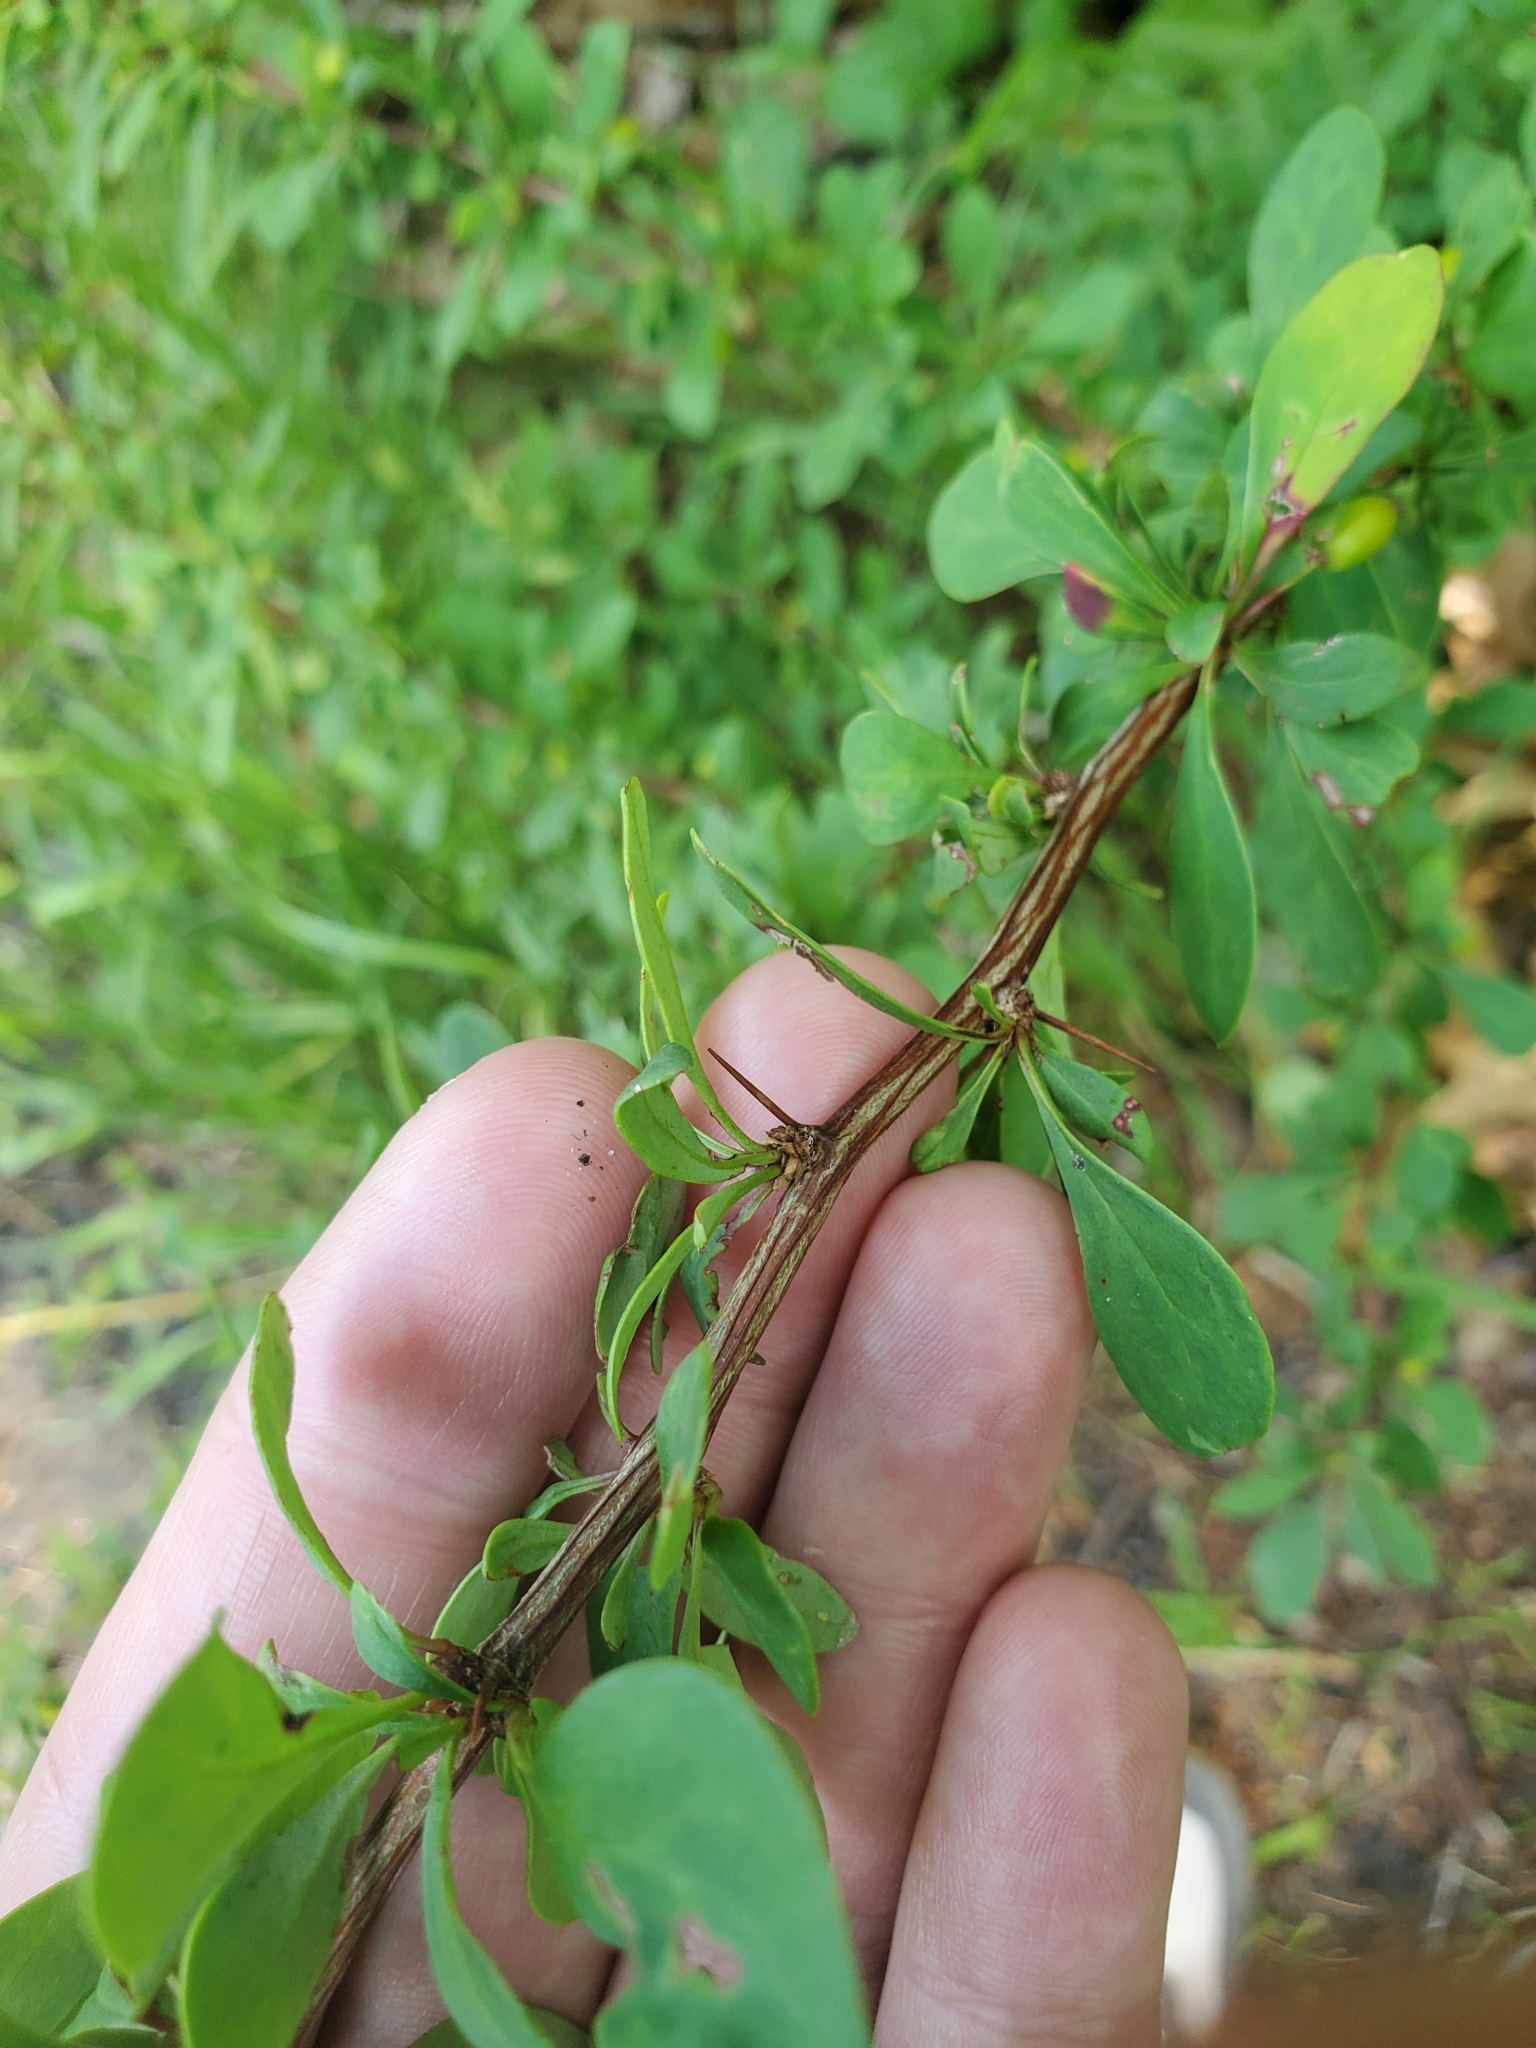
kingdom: Plantae
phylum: Tracheophyta
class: Magnoliopsida
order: Ranunculales
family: Berberidaceae
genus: Berberis
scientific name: Berberis thunbergii
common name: Japanese barberry
